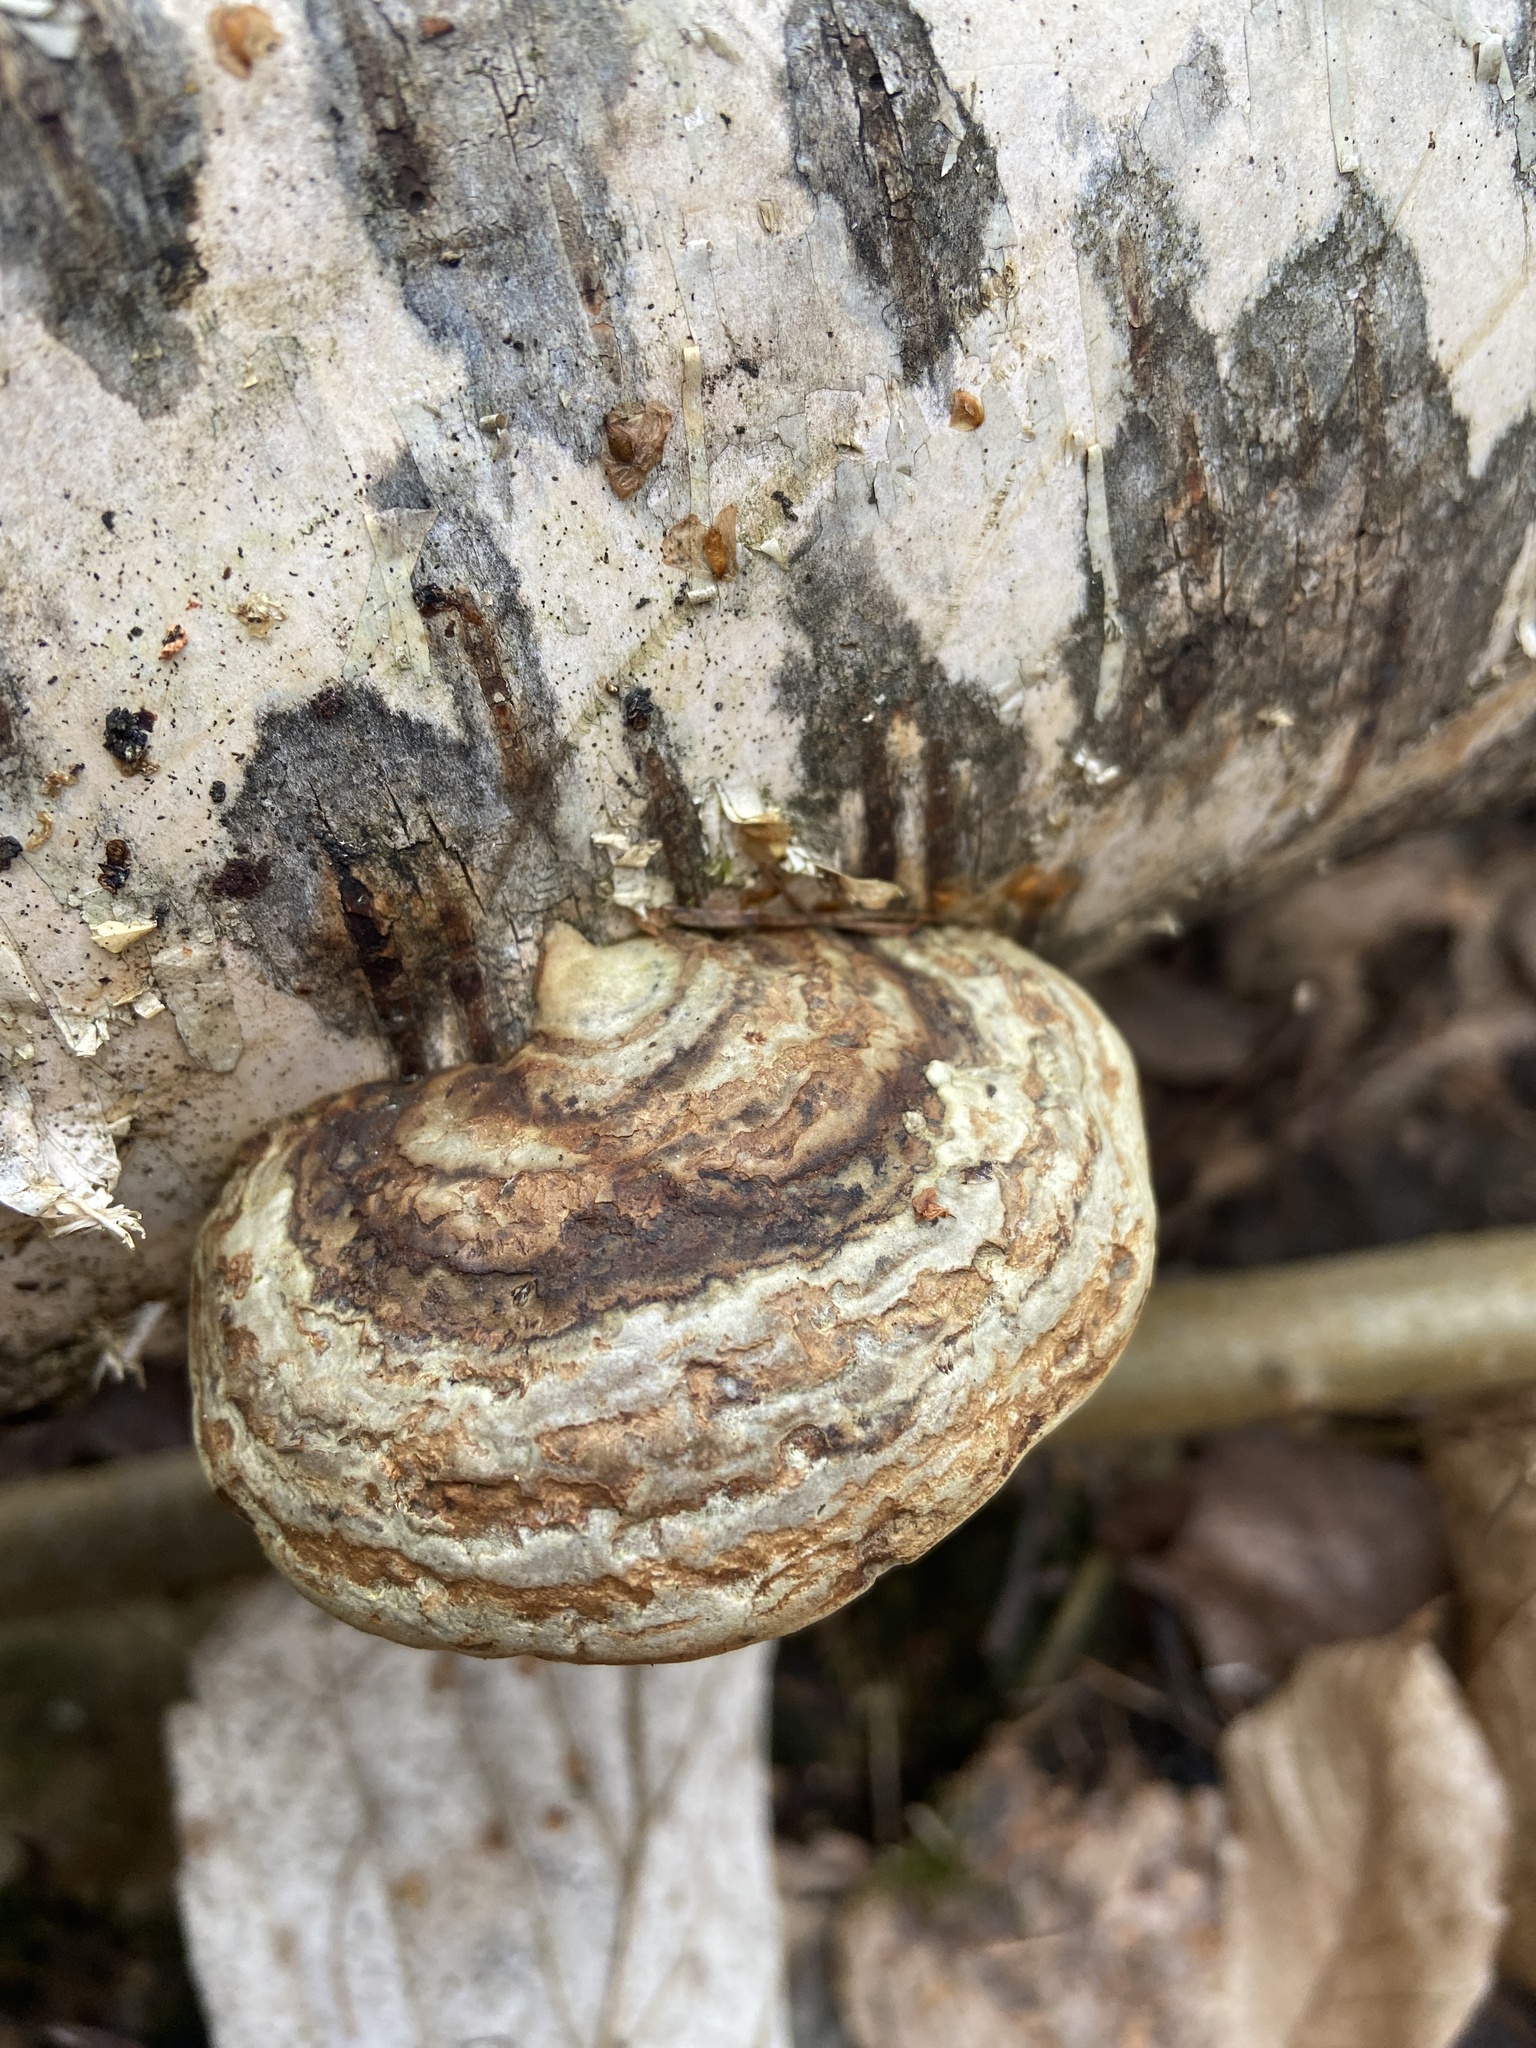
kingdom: Fungi
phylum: Basidiomycota
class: Agaricomycetes
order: Polyporales
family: Polyporaceae
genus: Fomes
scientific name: Fomes fomentarius
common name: Hoof fungus
